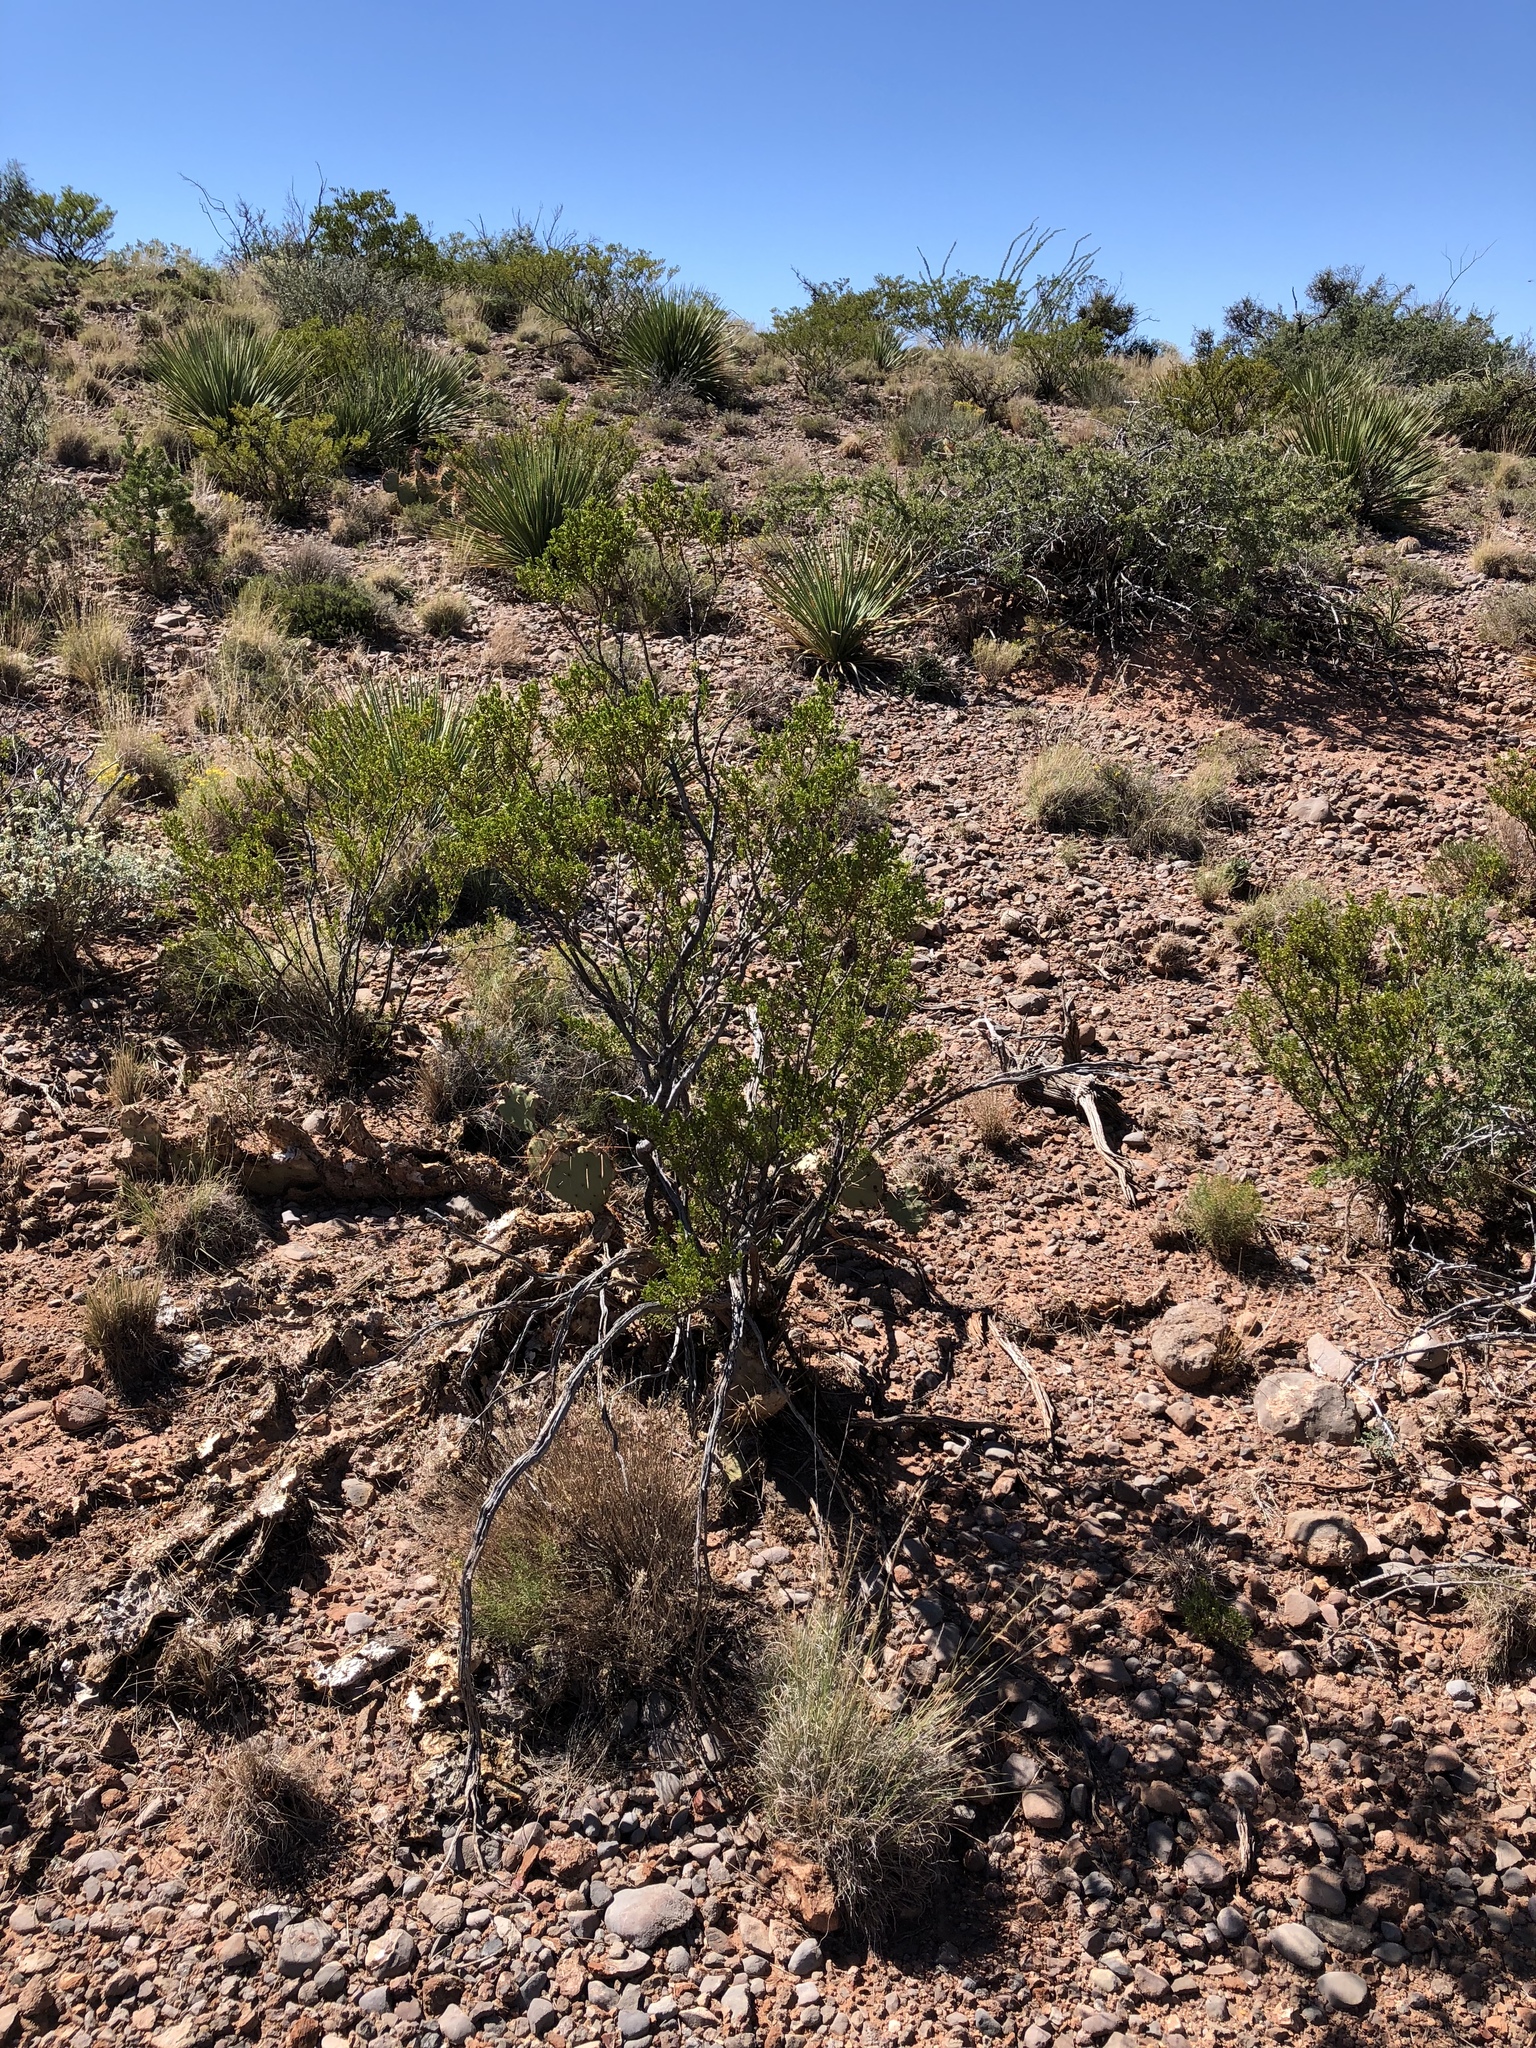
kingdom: Plantae
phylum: Tracheophyta
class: Magnoliopsida
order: Zygophyllales
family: Zygophyllaceae
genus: Larrea
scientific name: Larrea tridentata
